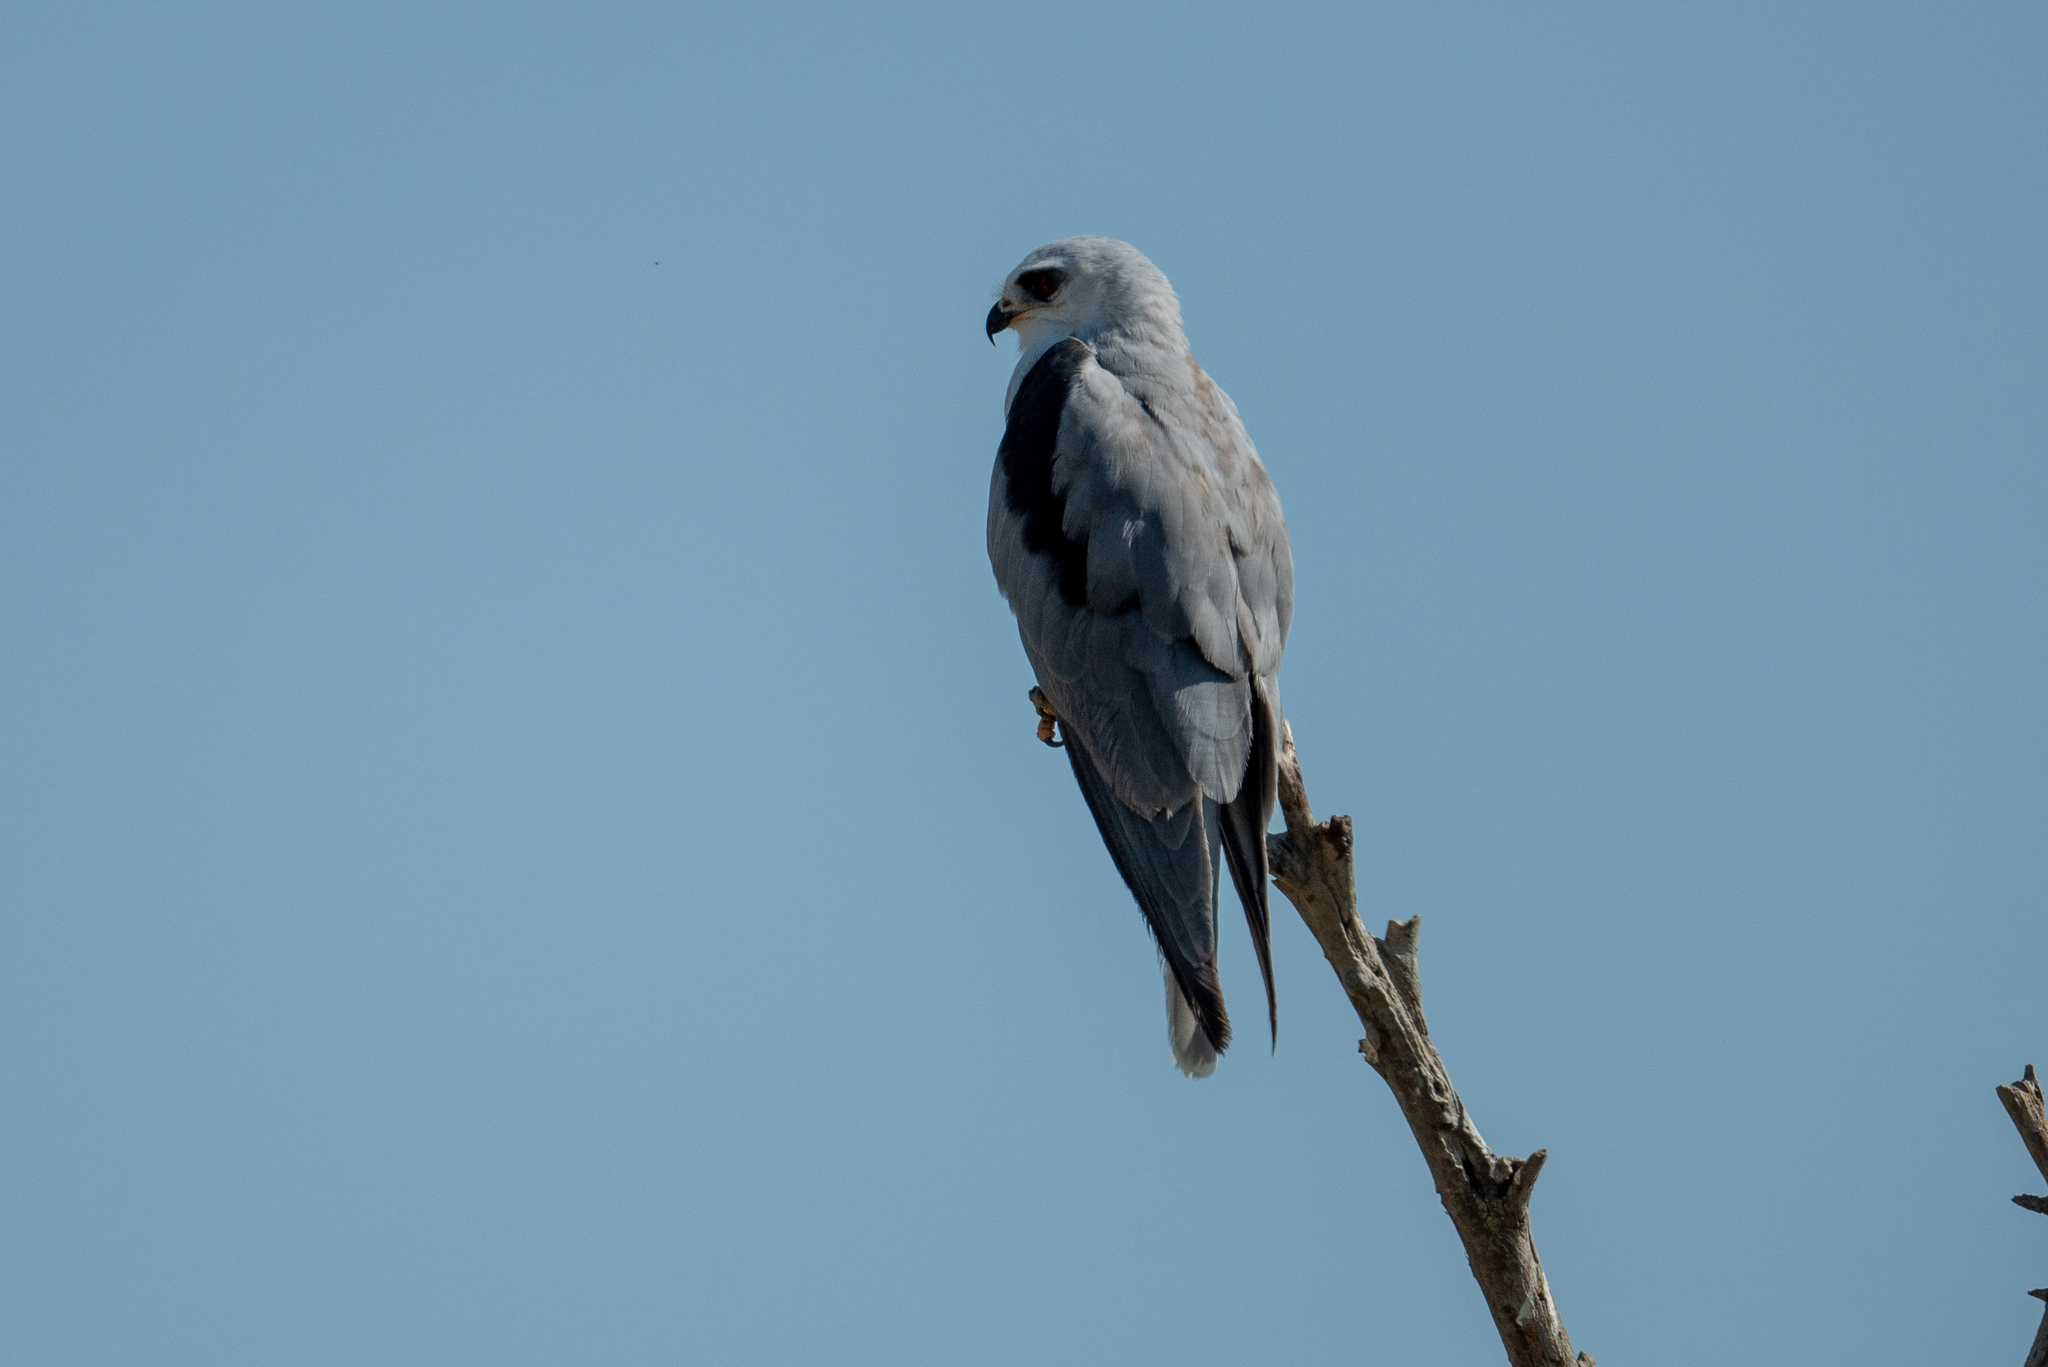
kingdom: Animalia
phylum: Chordata
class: Aves
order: Accipitriformes
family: Accipitridae
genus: Elanus
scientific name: Elanus leucurus
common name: White-tailed kite
